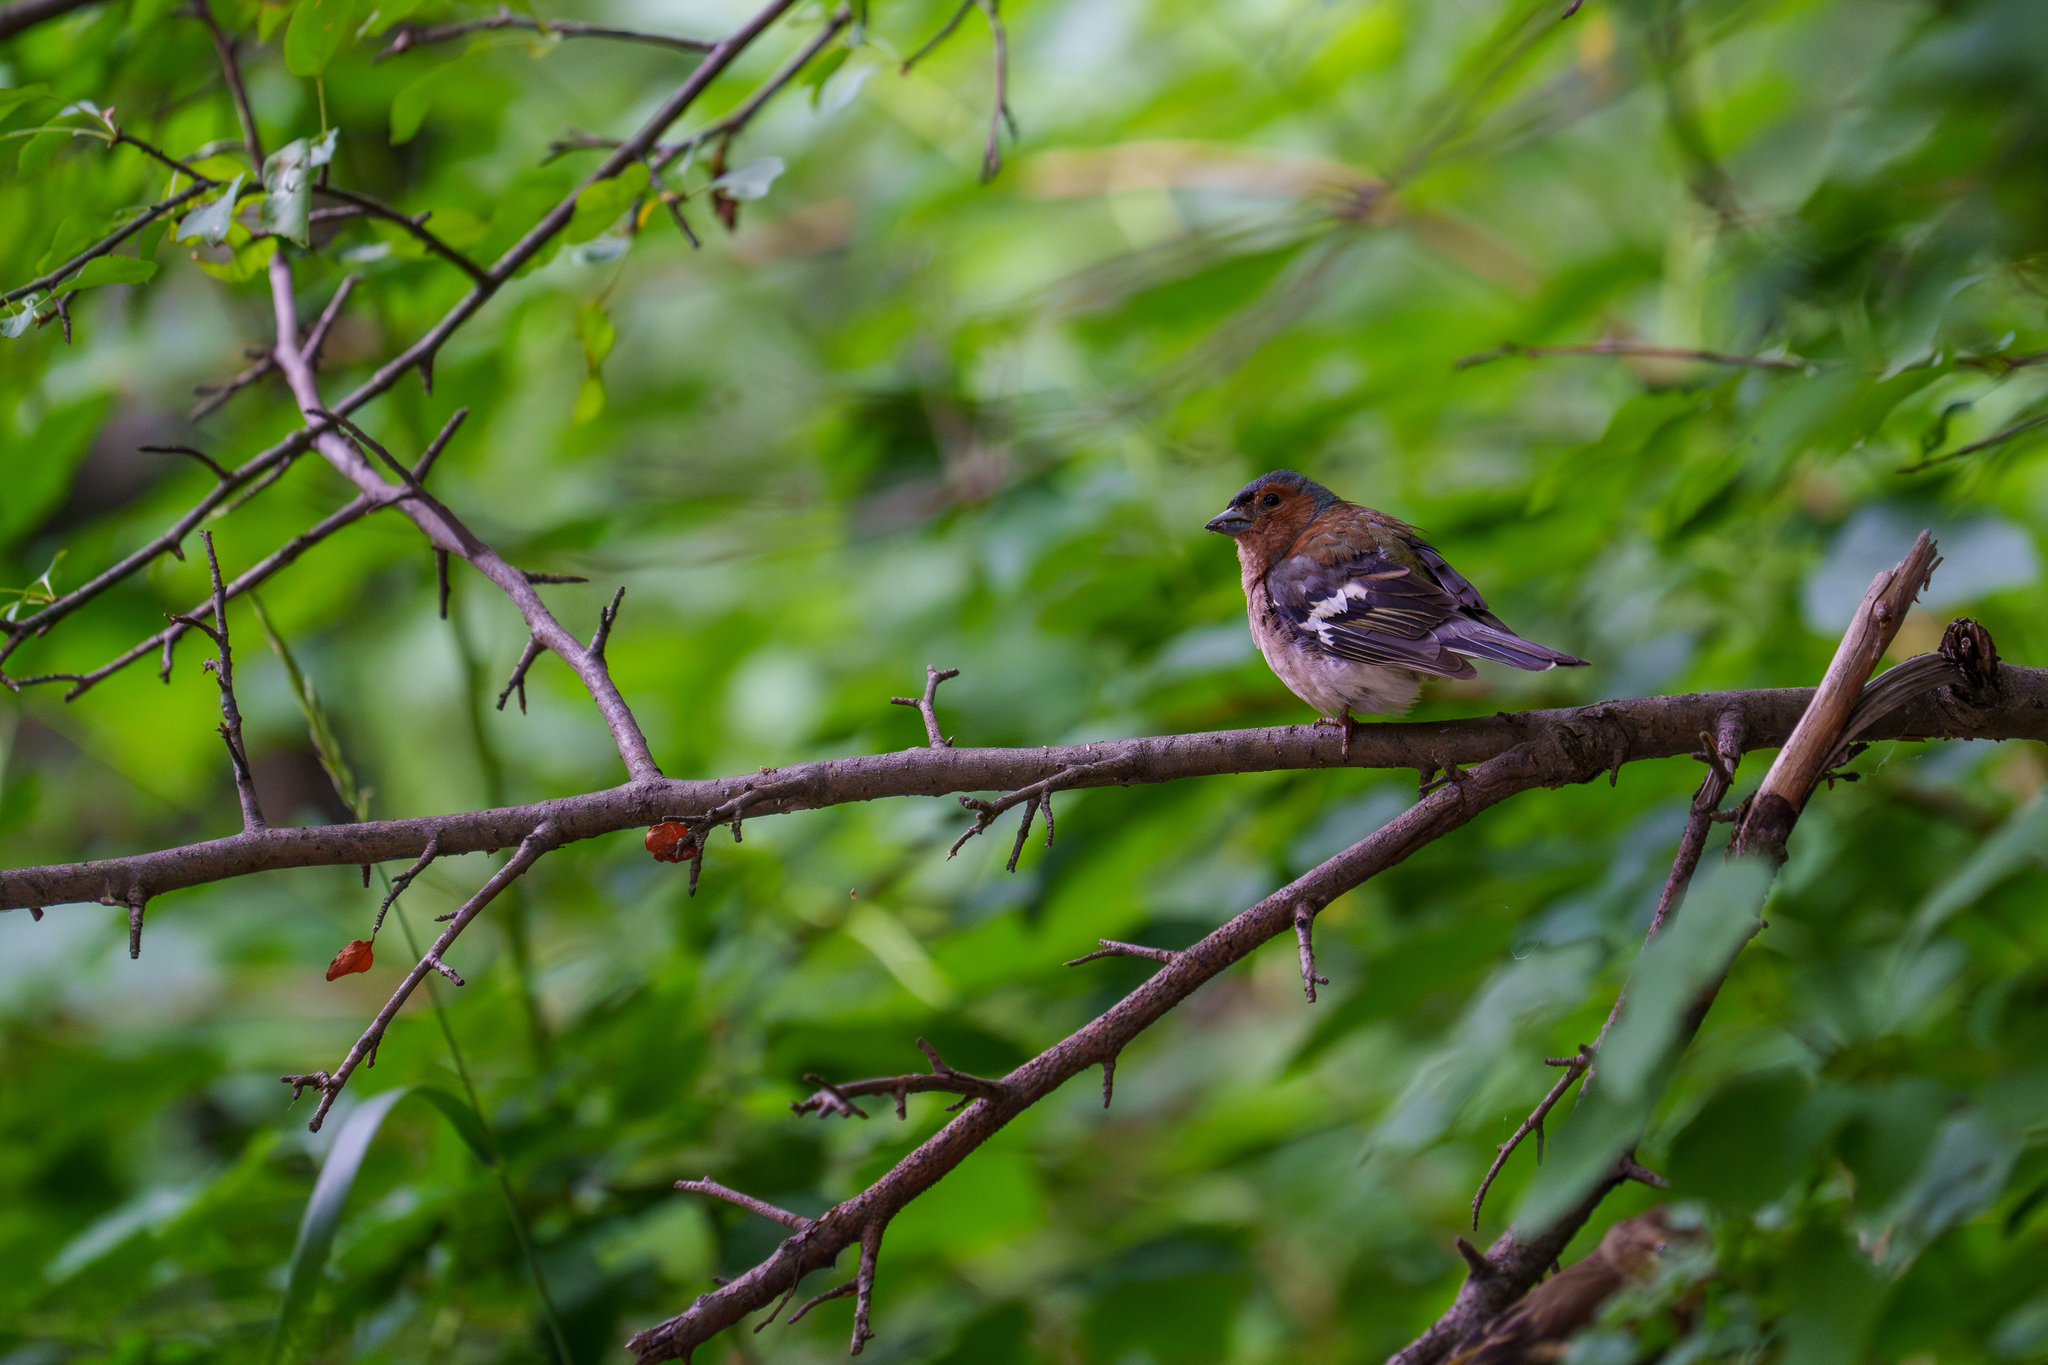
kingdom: Animalia
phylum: Chordata
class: Aves
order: Passeriformes
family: Fringillidae
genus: Fringilla
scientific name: Fringilla coelebs
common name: Common chaffinch
